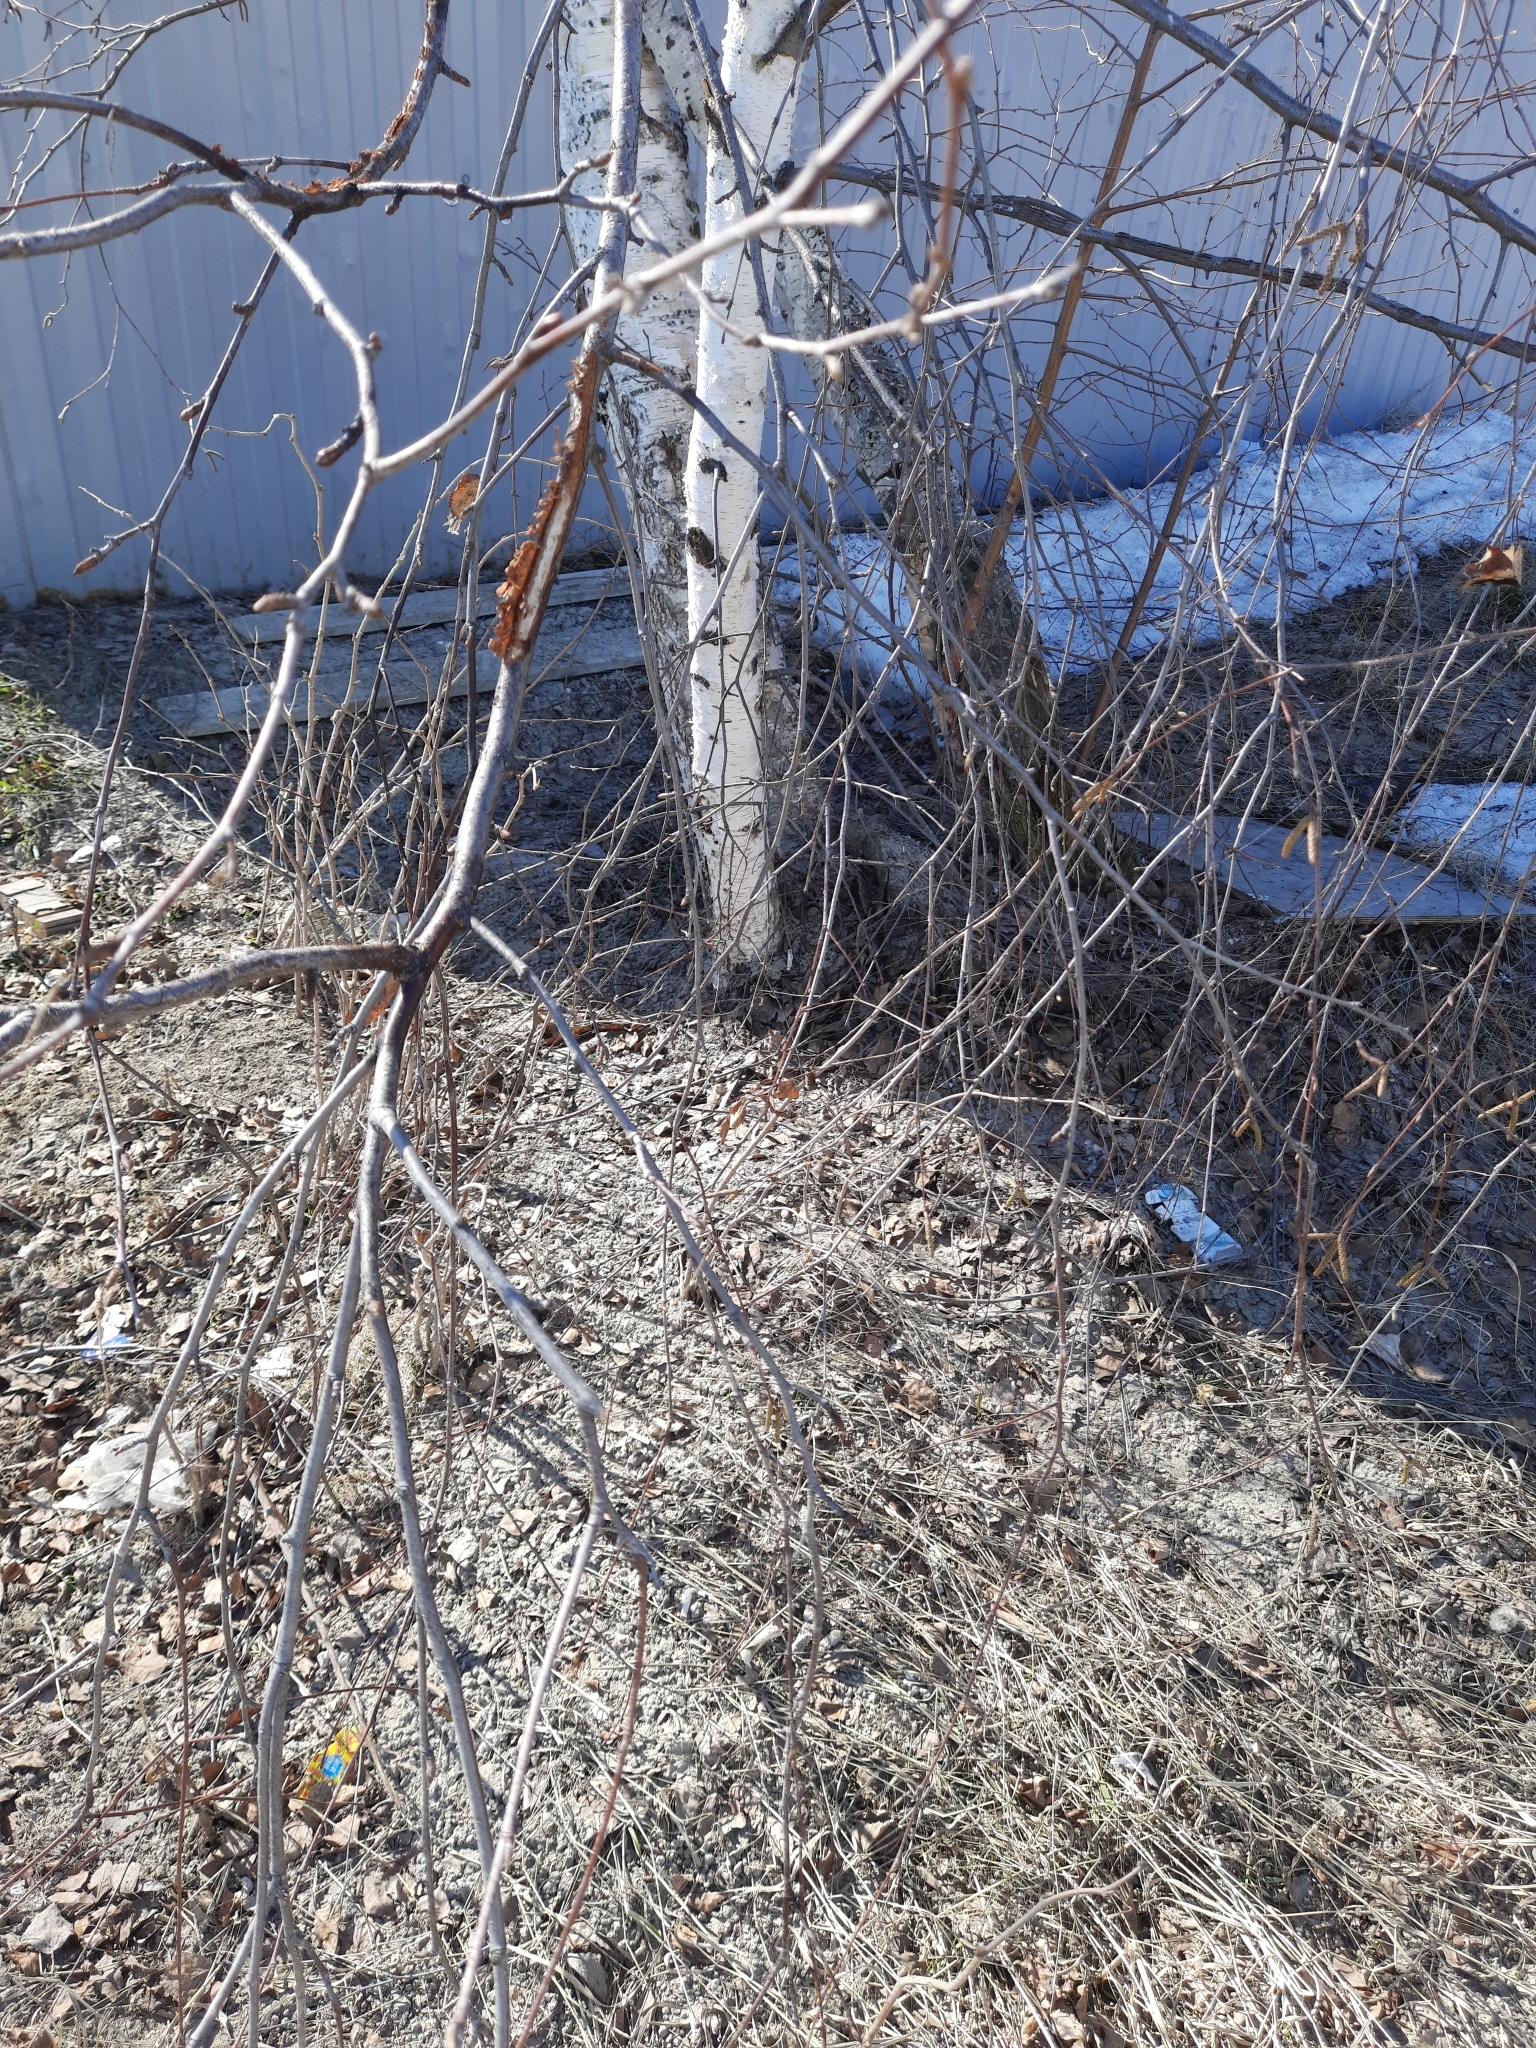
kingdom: Plantae
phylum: Tracheophyta
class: Magnoliopsida
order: Fagales
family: Betulaceae
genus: Betula
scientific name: Betula pendula
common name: Silver birch
